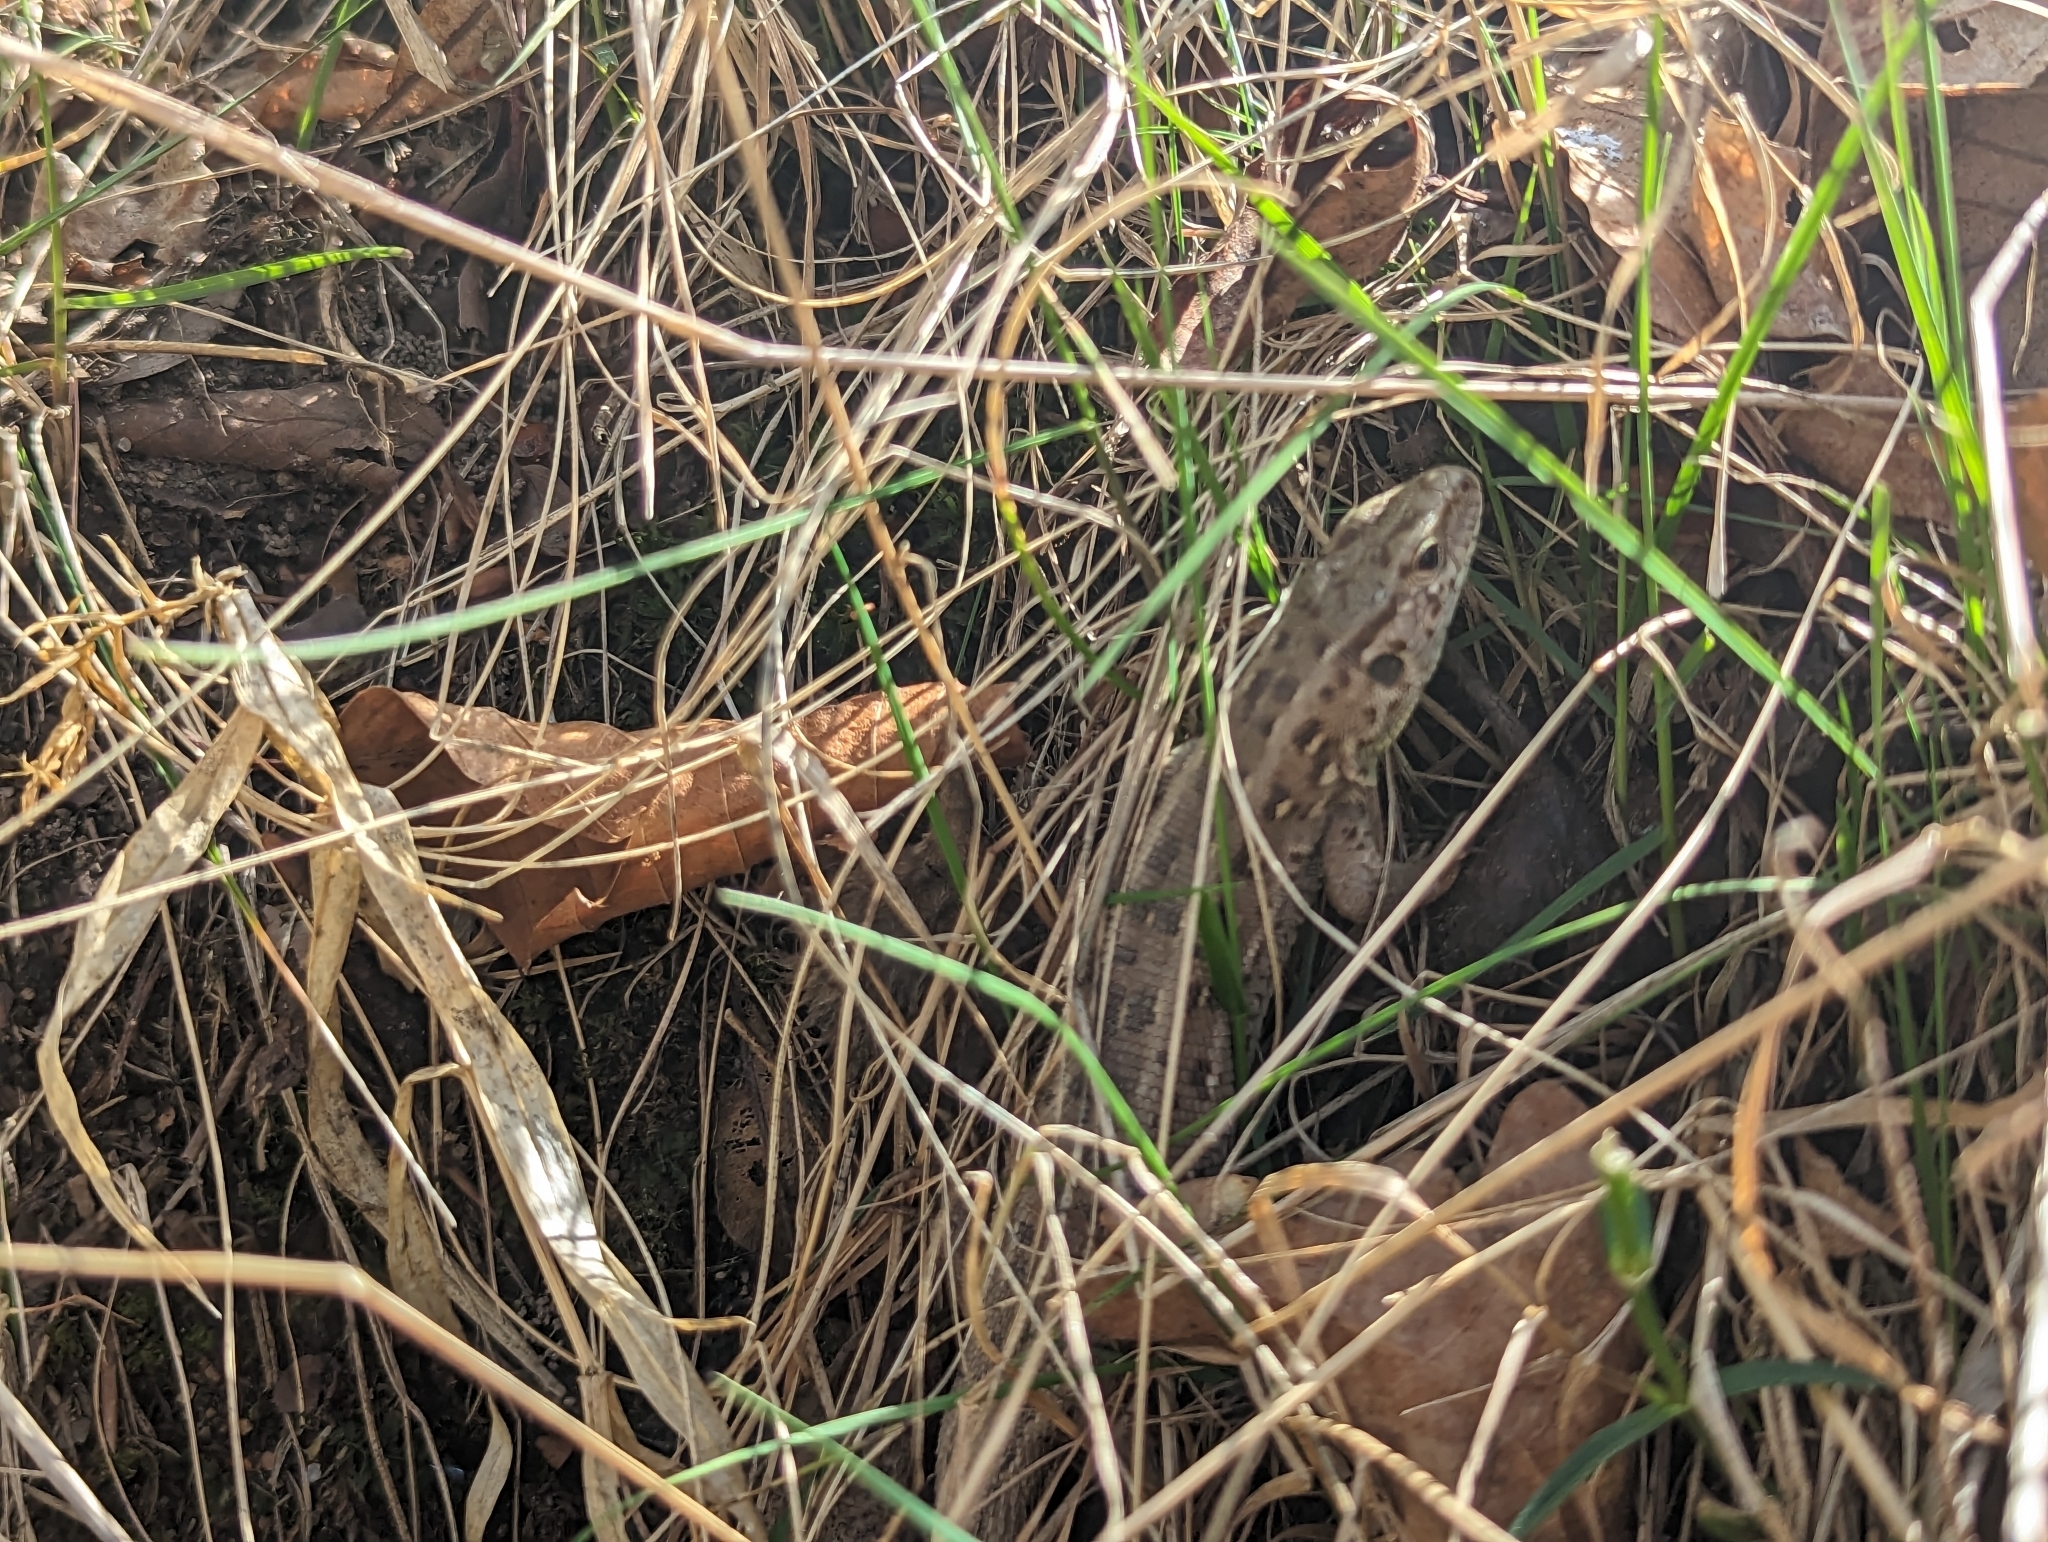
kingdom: Animalia
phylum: Chordata
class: Squamata
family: Lacertidae
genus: Lacerta
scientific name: Lacerta agilis
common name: Sand lizard
